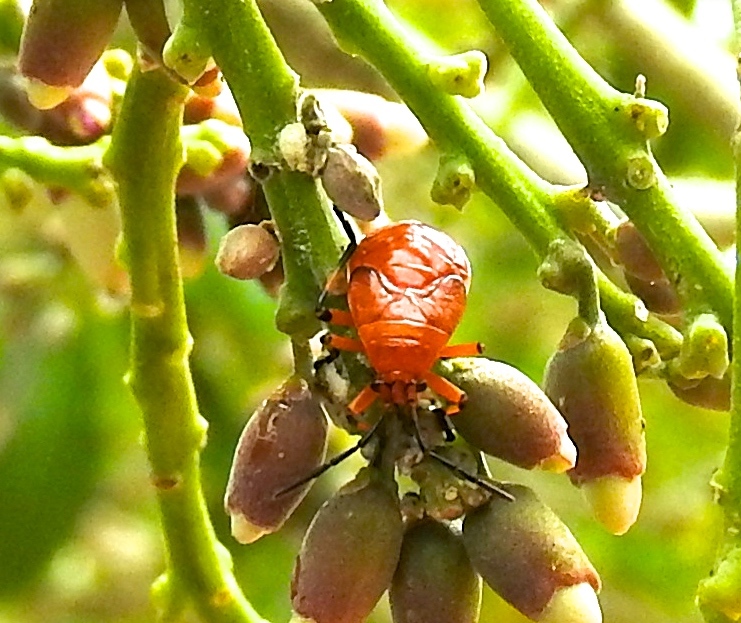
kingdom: Animalia
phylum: Arthropoda
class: Insecta
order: Hemiptera
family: Largidae
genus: Largus
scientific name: Largus
